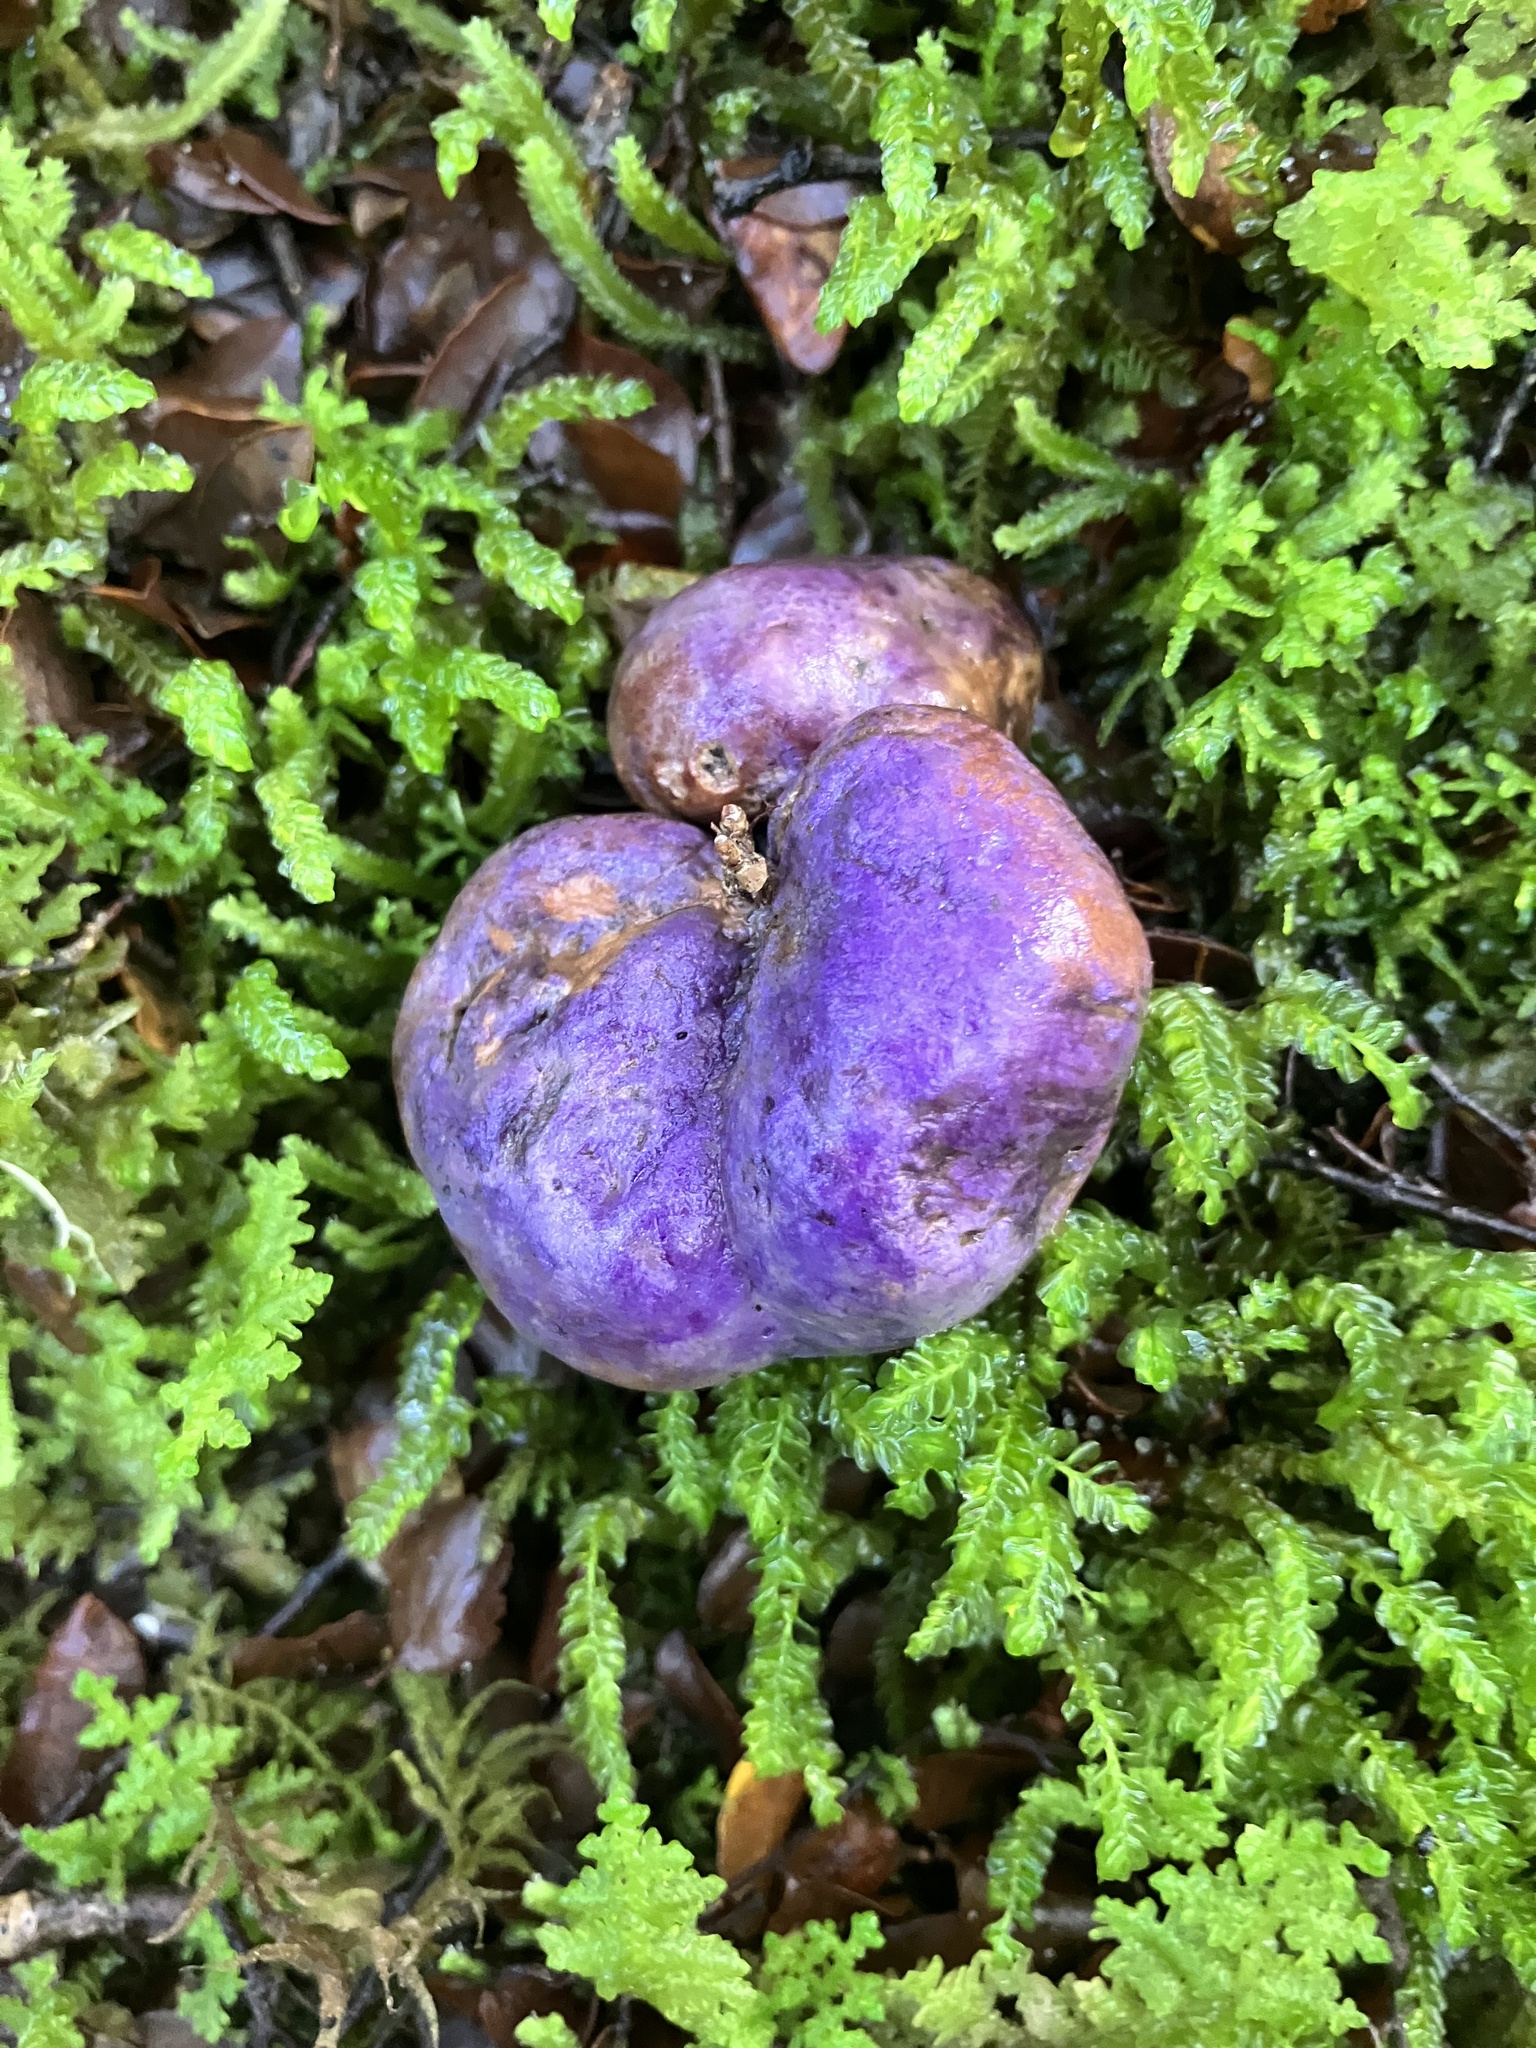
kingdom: Fungi
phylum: Basidiomycota
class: Agaricomycetes
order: Hysterangiales
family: Gallaceaceae
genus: Gallacea
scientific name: Gallacea scleroderma
